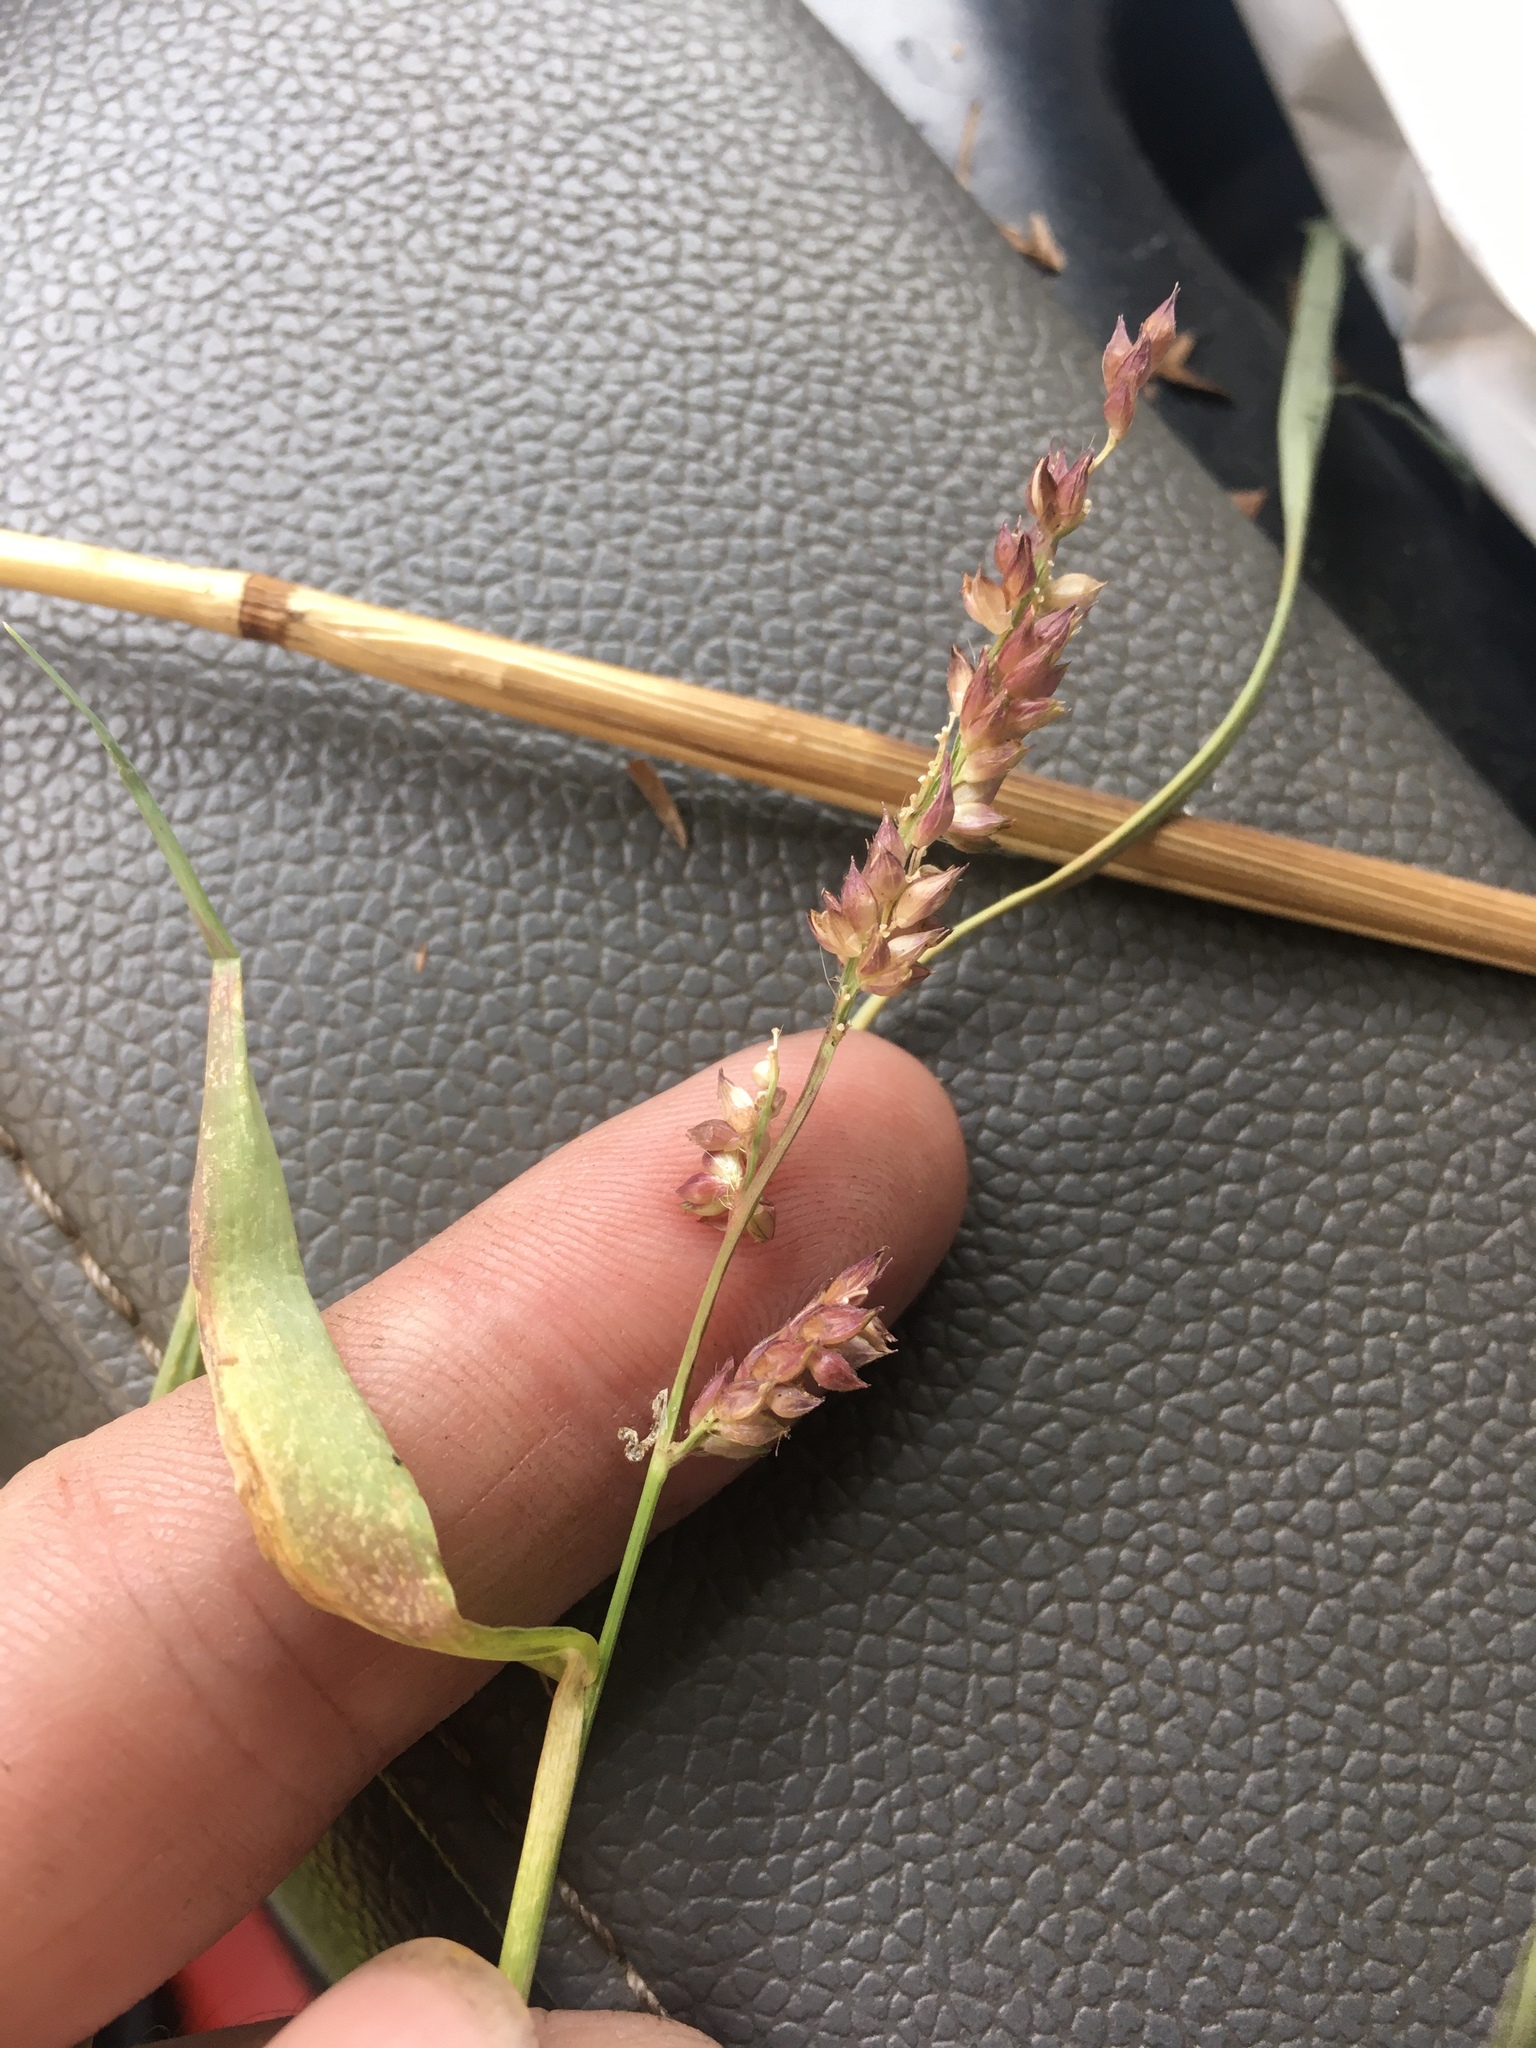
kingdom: Plantae
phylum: Tracheophyta
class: Liliopsida
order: Poales
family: Poaceae
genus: Echinochloa
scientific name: Echinochloa colonum
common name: Jungle rice
